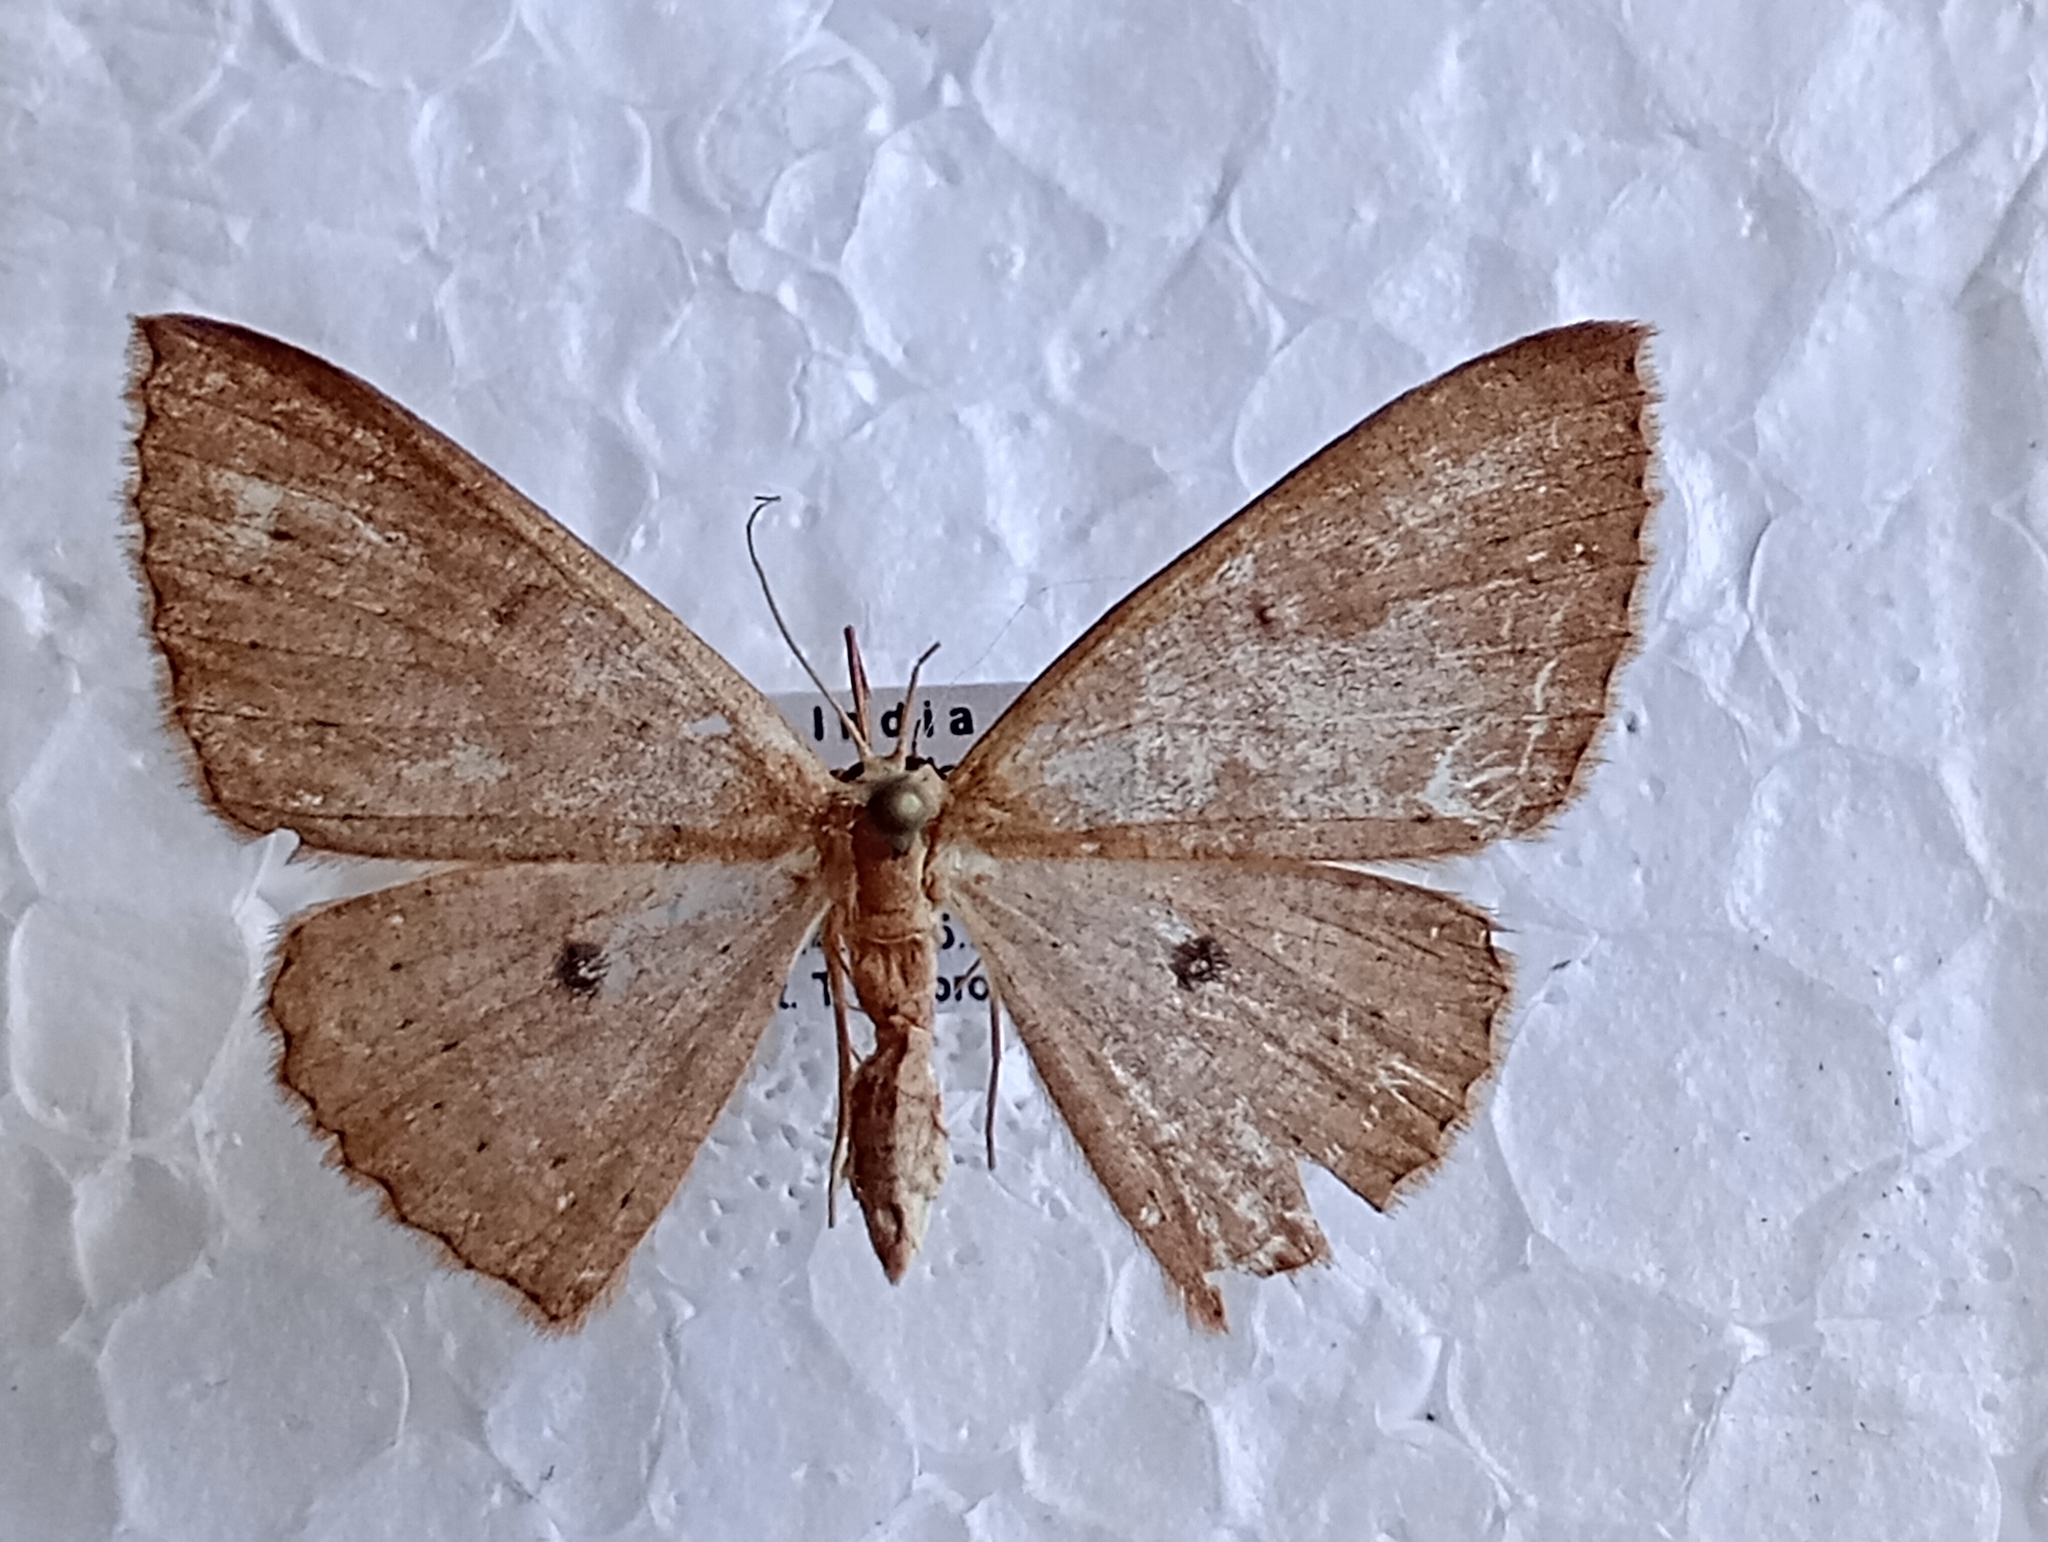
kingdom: Animalia
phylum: Arthropoda
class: Insecta
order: Lepidoptera
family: Geometridae
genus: Perixera
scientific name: Perixera absconditaria
